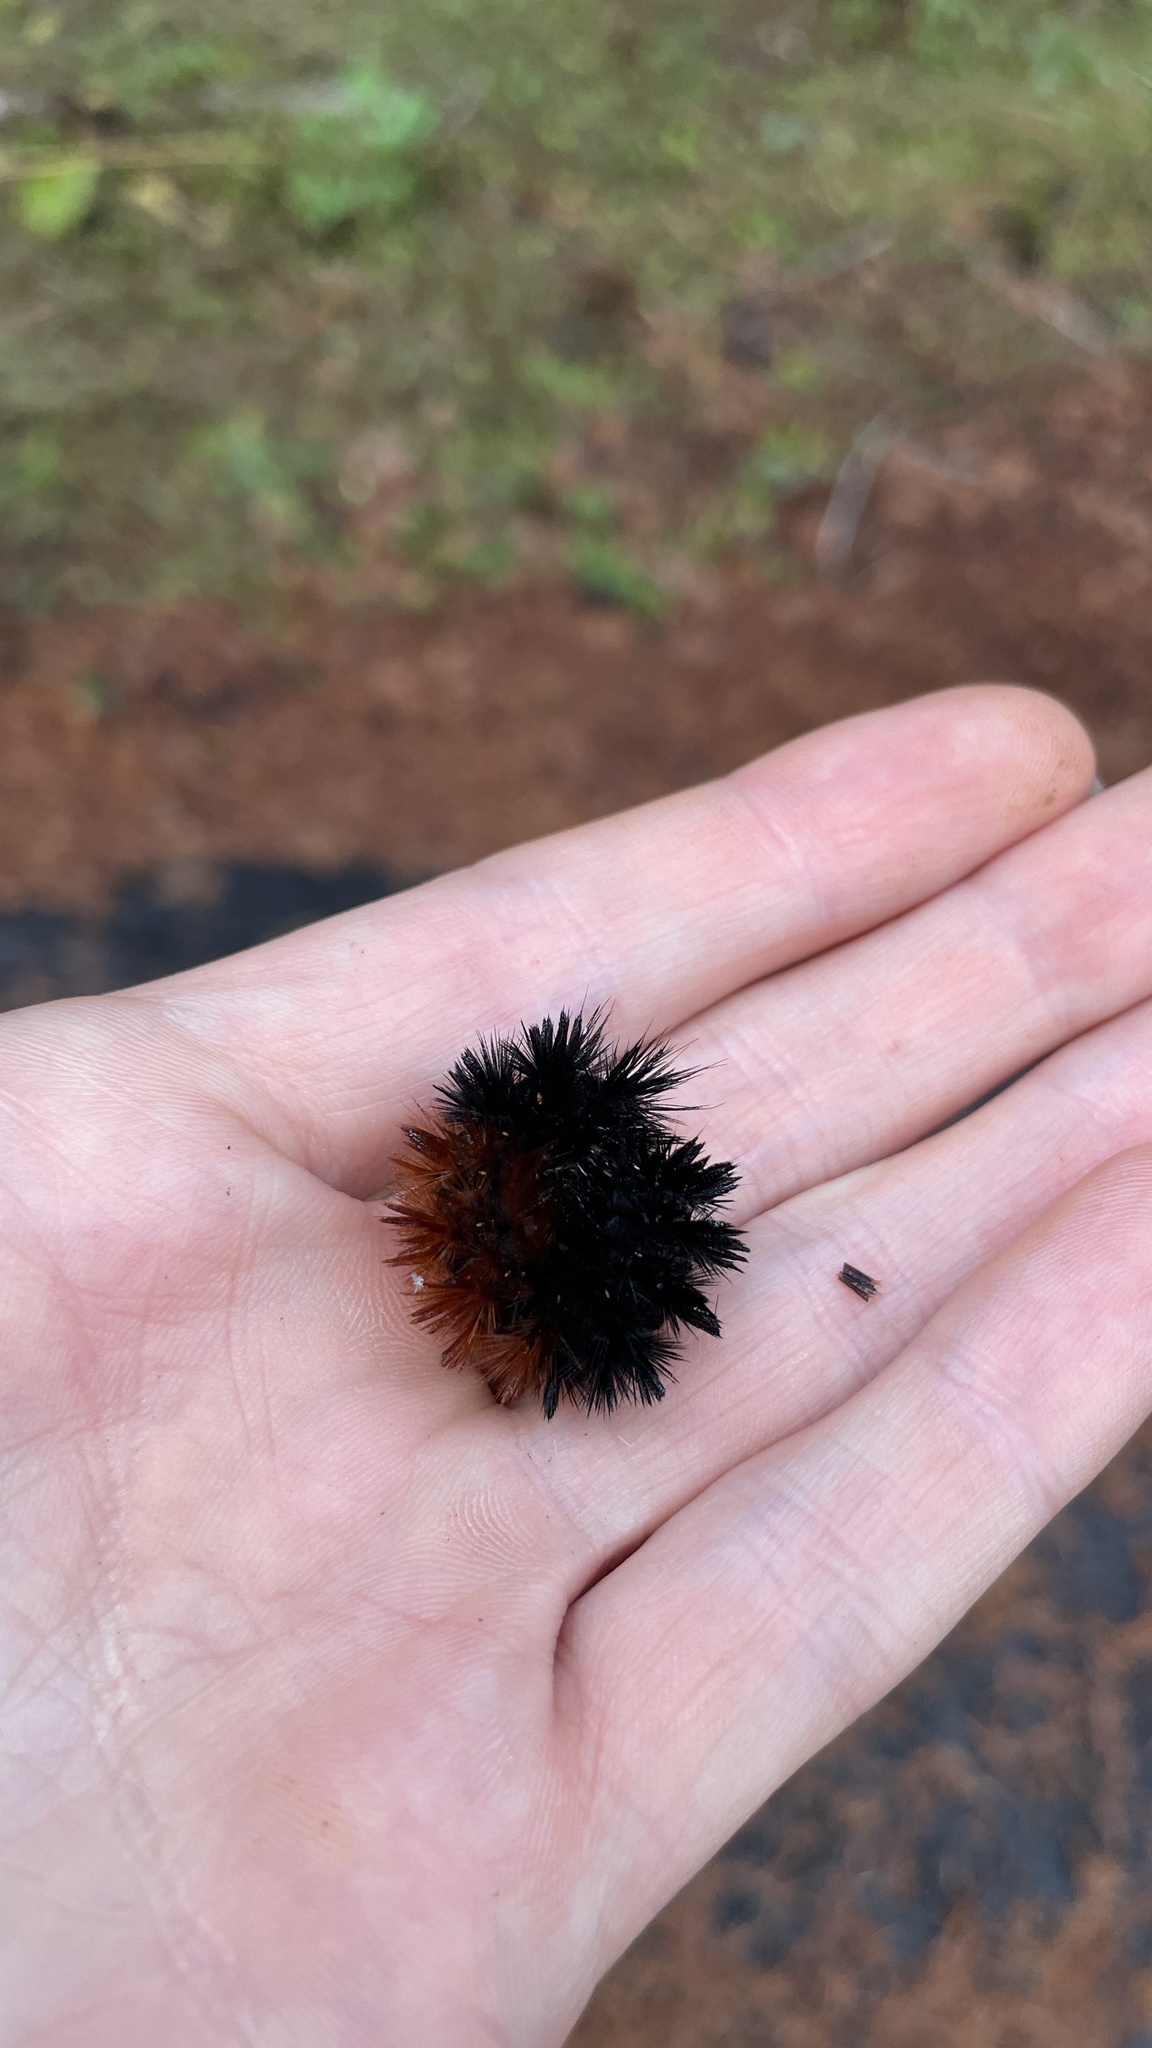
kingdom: Animalia
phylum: Arthropoda
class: Insecta
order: Lepidoptera
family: Erebidae
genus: Pyrrharctia
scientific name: Pyrrharctia isabella
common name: Isabella tiger moth
